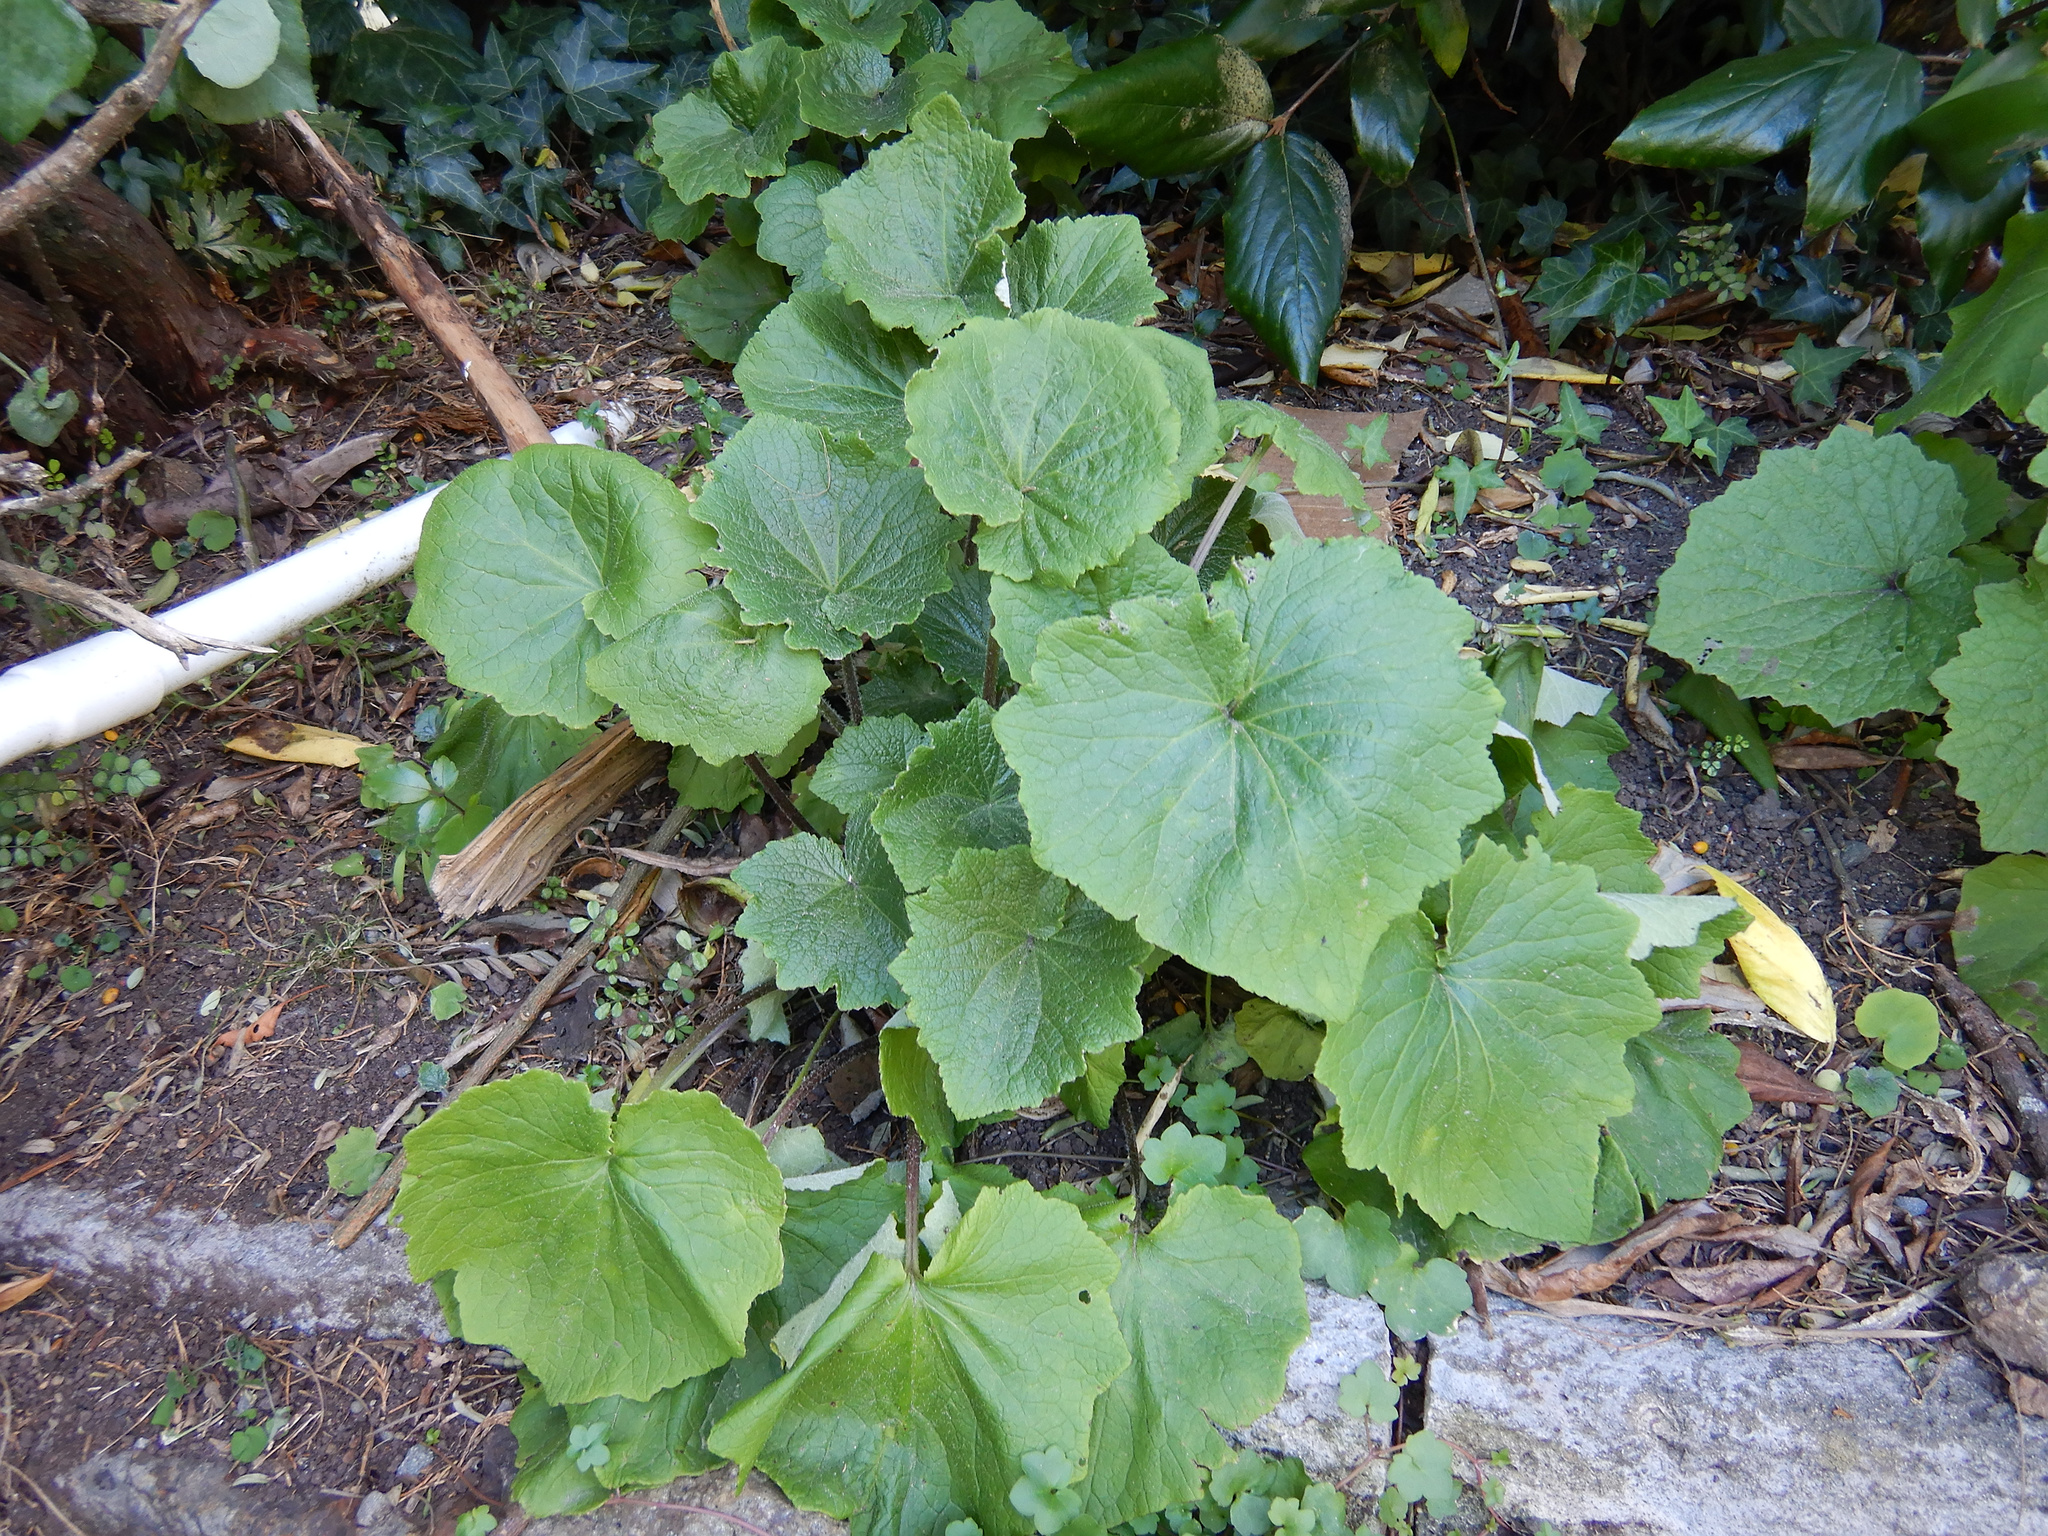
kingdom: Plantae
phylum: Tracheophyta
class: Magnoliopsida
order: Asterales
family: Asteraceae
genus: Pericallis
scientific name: Pericallis hybrida
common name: Cineraria
